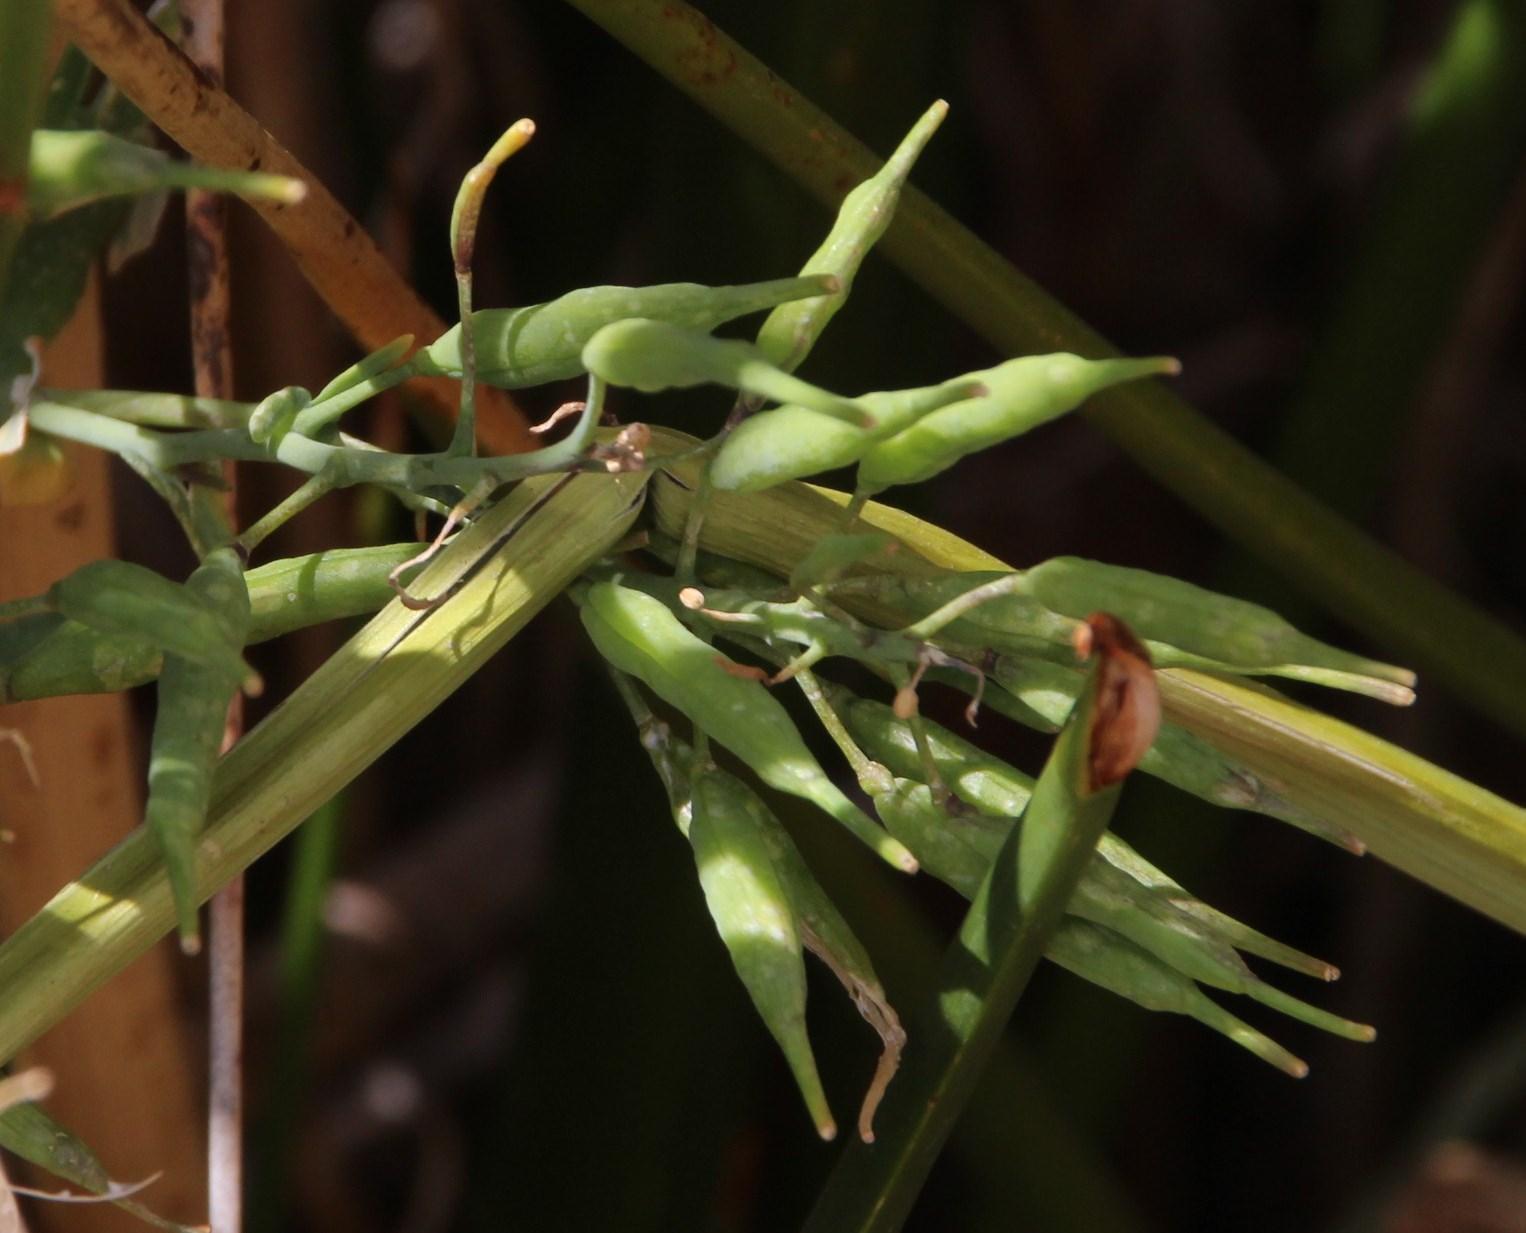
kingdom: Plantae
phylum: Tracheophyta
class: Magnoliopsida
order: Brassicales
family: Brassicaceae
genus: Sinapis
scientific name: Sinapis alba
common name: White mustard
